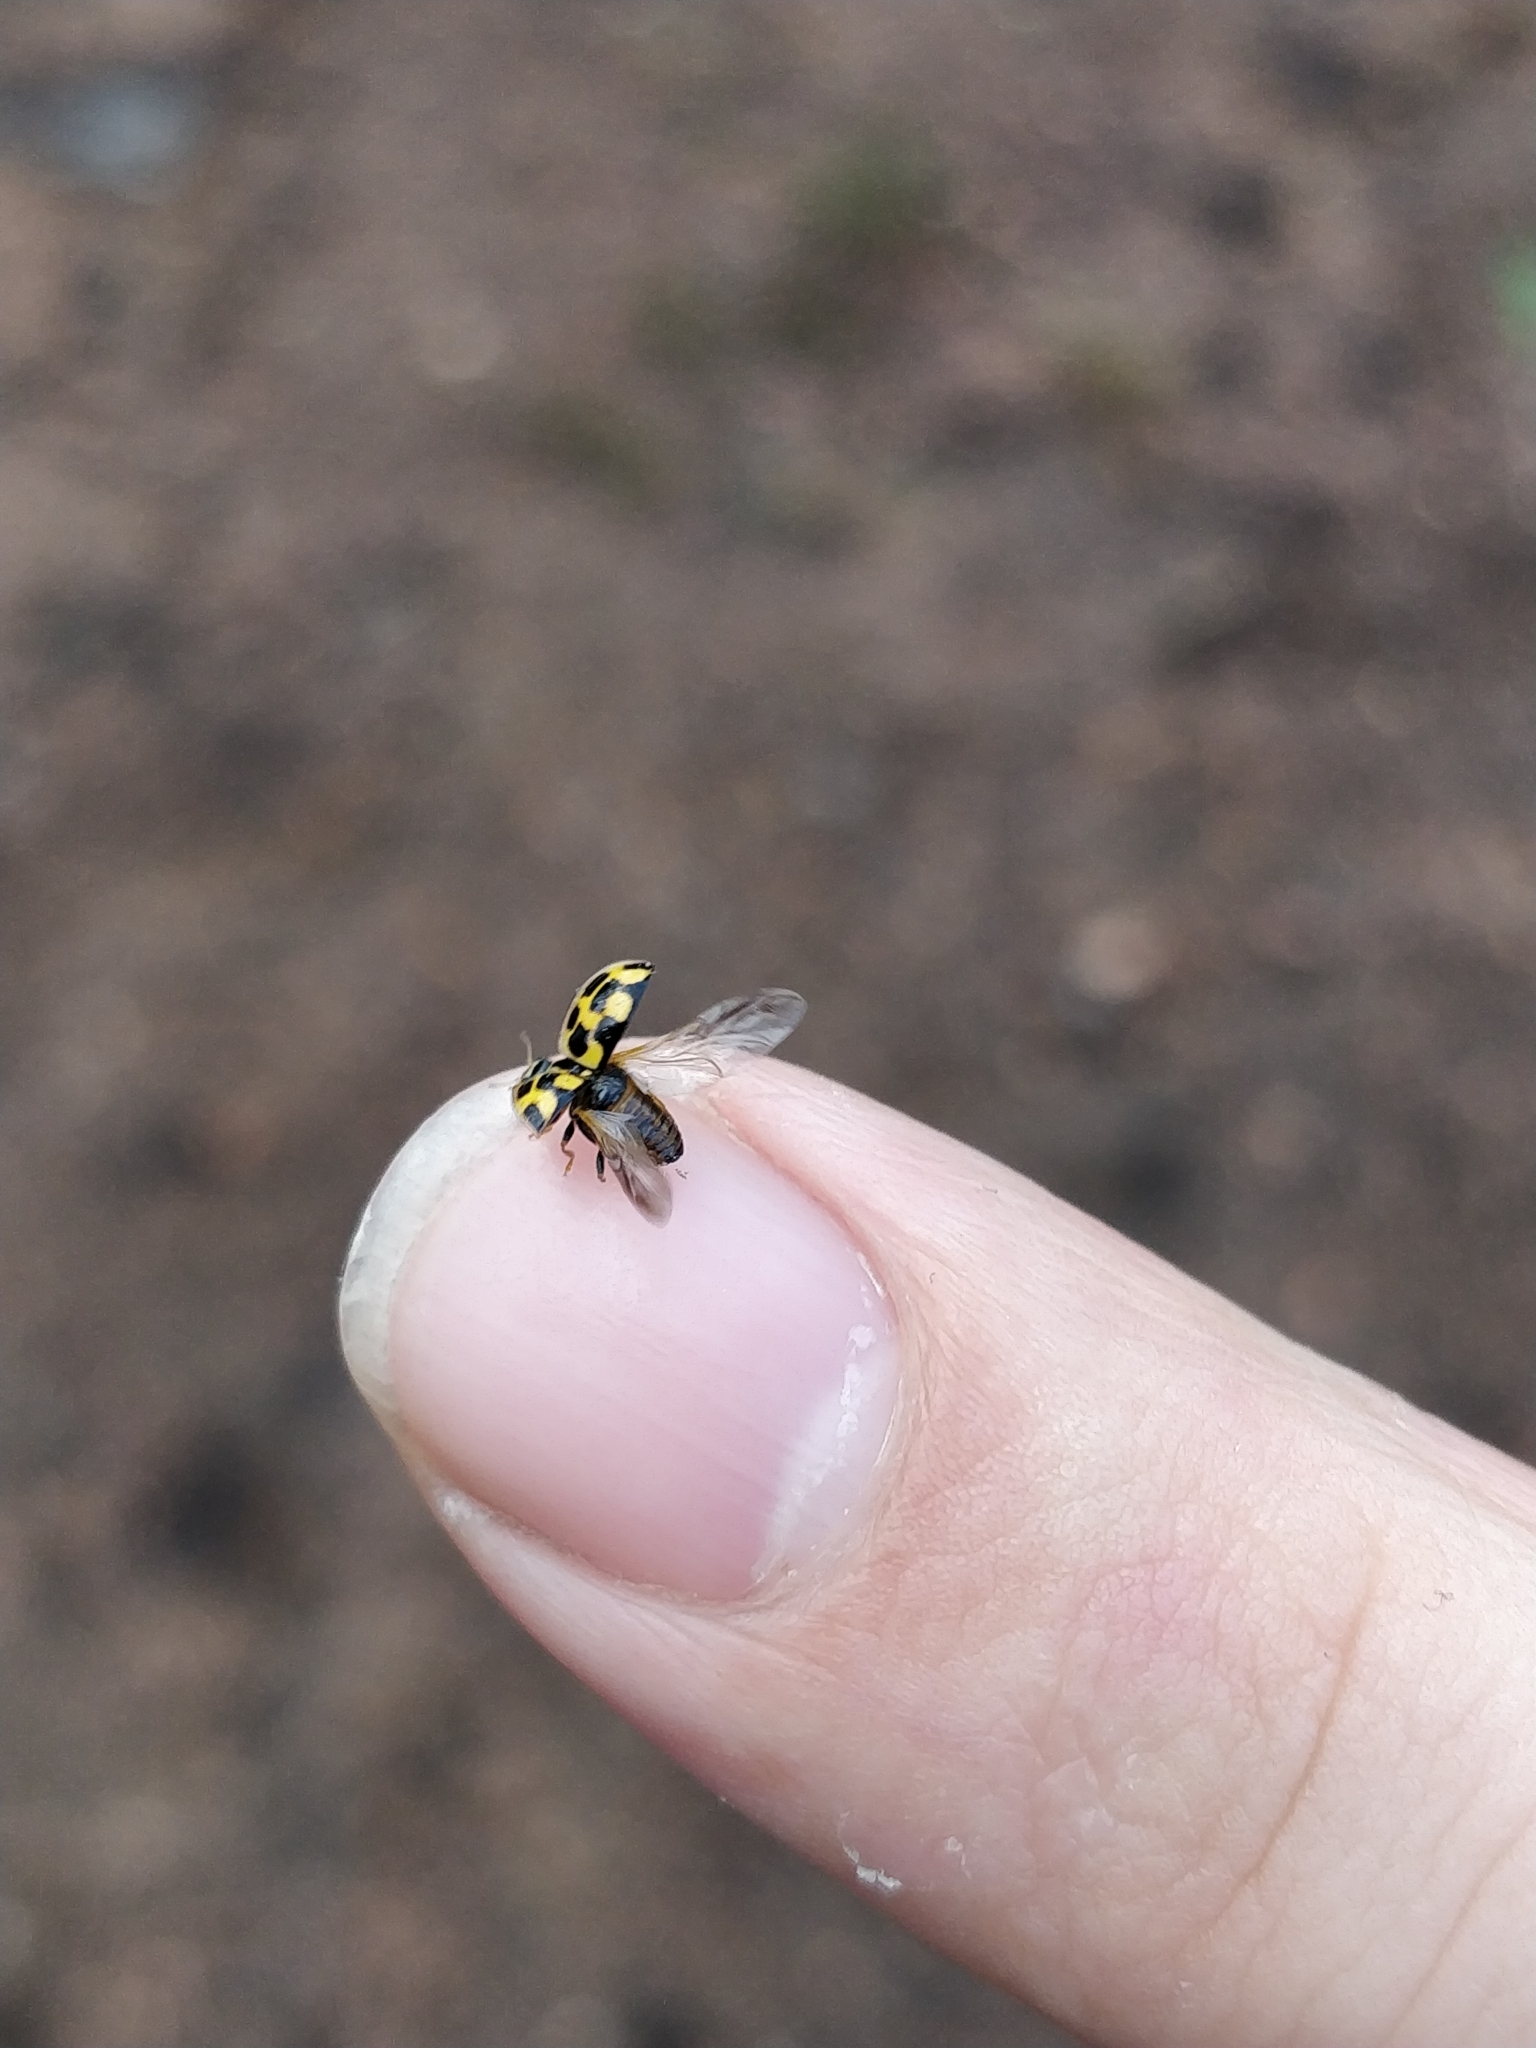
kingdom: Animalia
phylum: Arthropoda
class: Insecta
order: Coleoptera
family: Coccinellidae
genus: Propylaea
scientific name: Propylaea quatuordecimpunctata
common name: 14-spotted ladybird beetle
